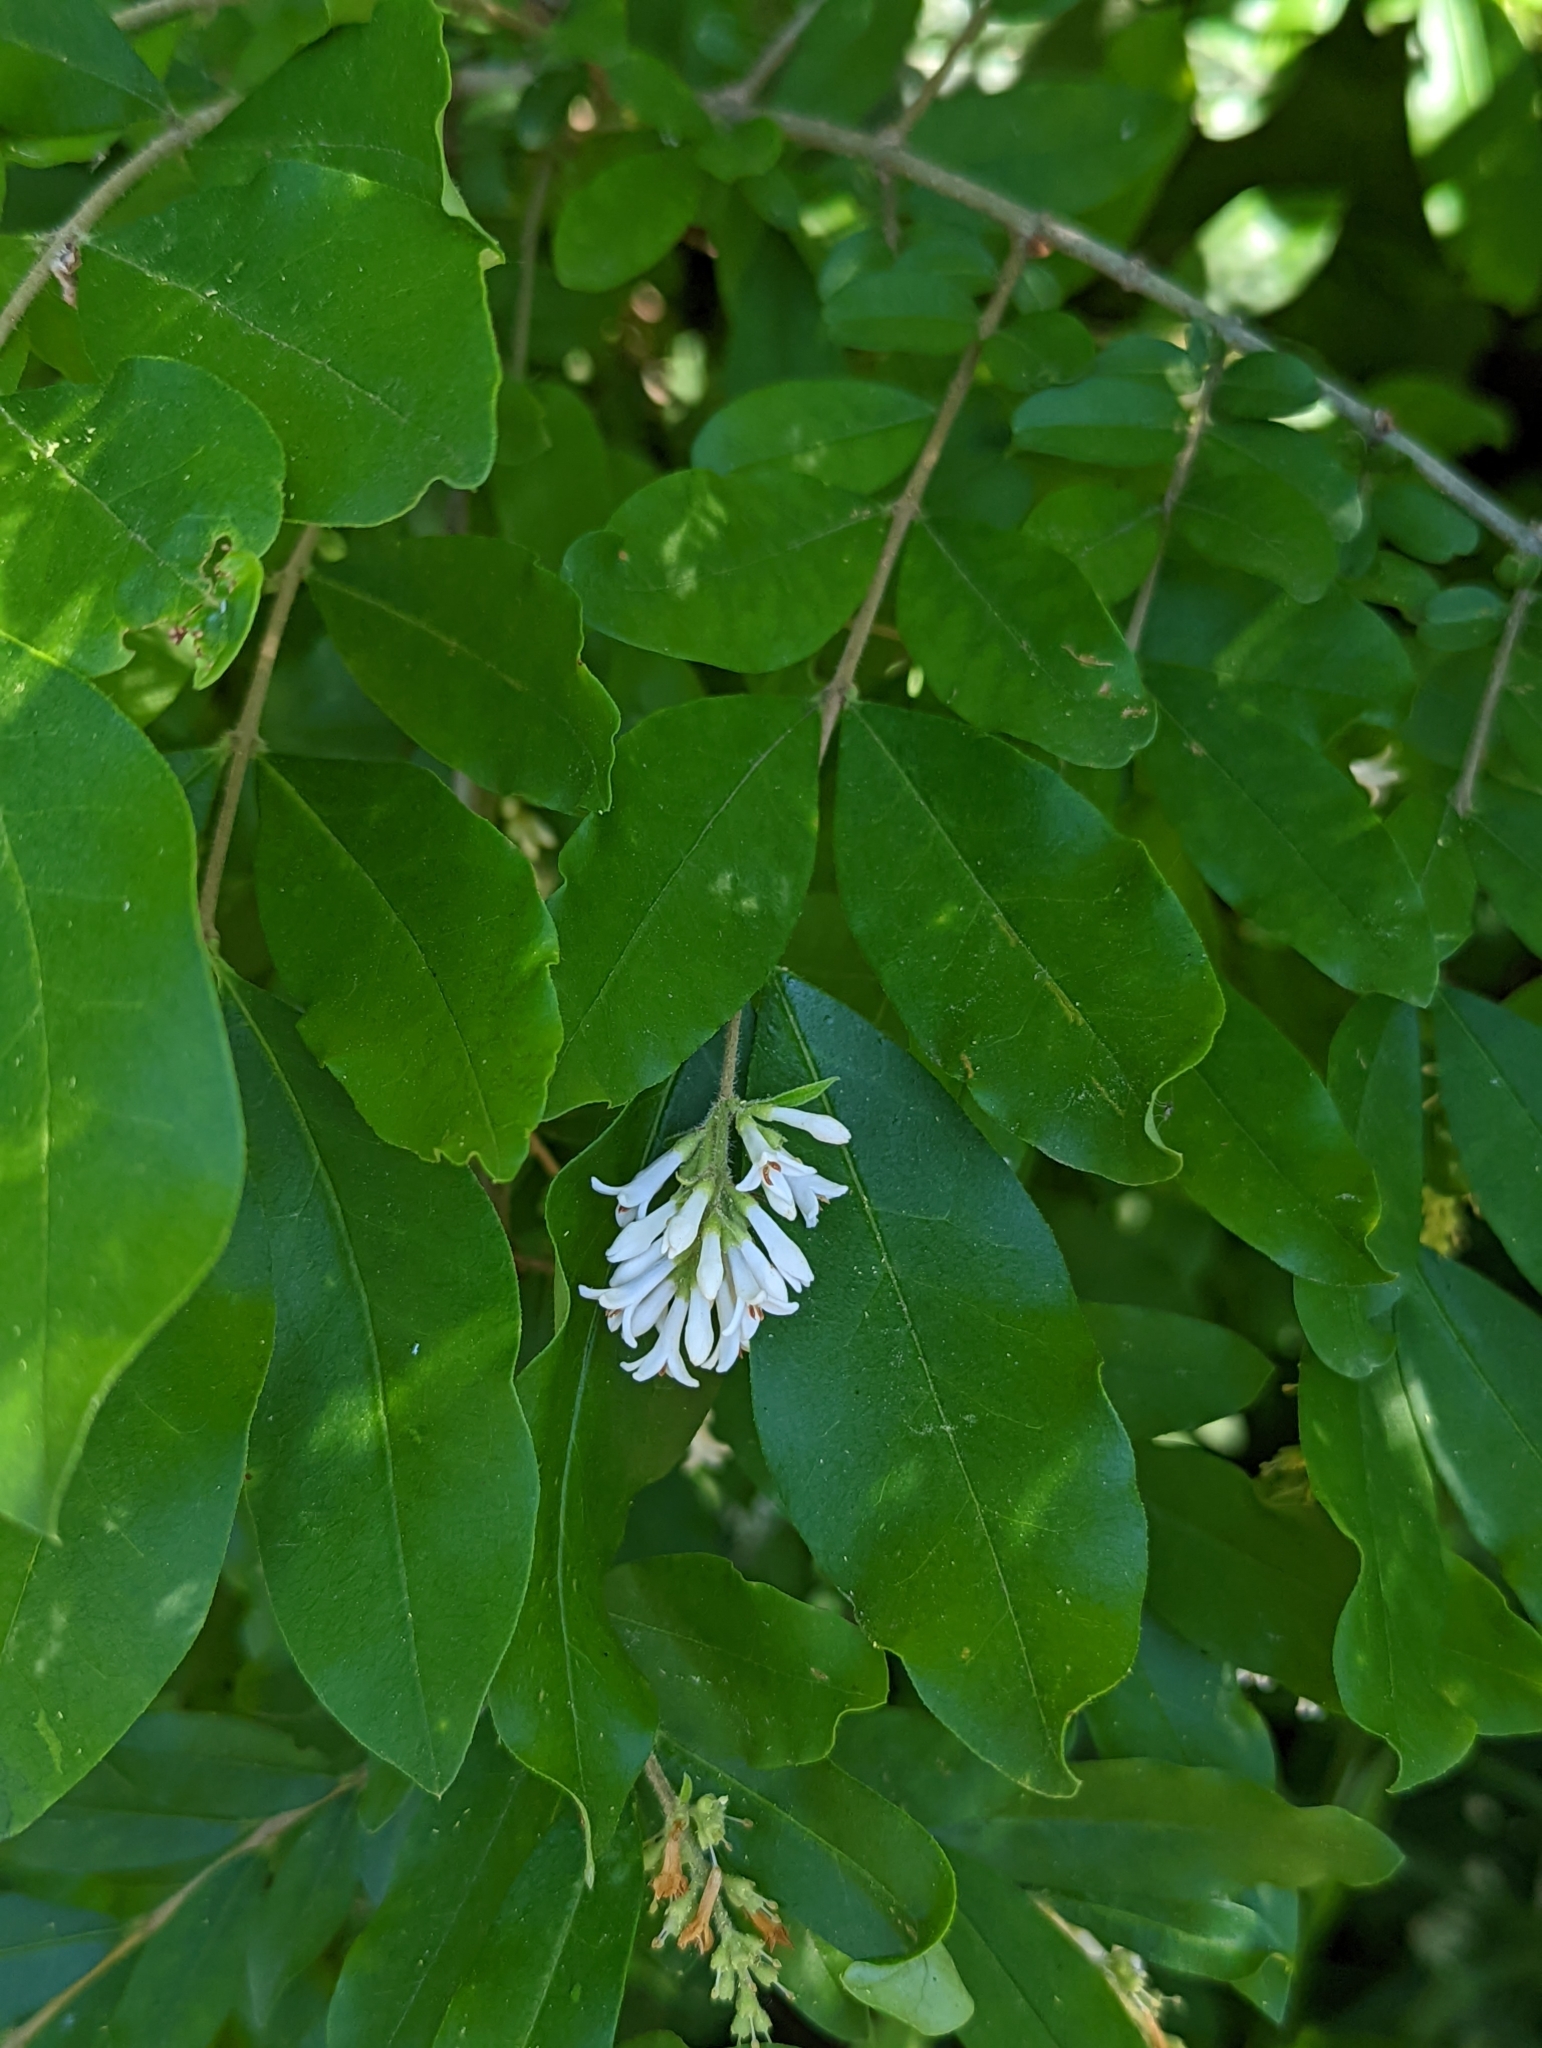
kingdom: Plantae
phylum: Tracheophyta
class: Magnoliopsida
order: Lamiales
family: Oleaceae
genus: Ligustrum
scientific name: Ligustrum obtusifolium
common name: Border privet
